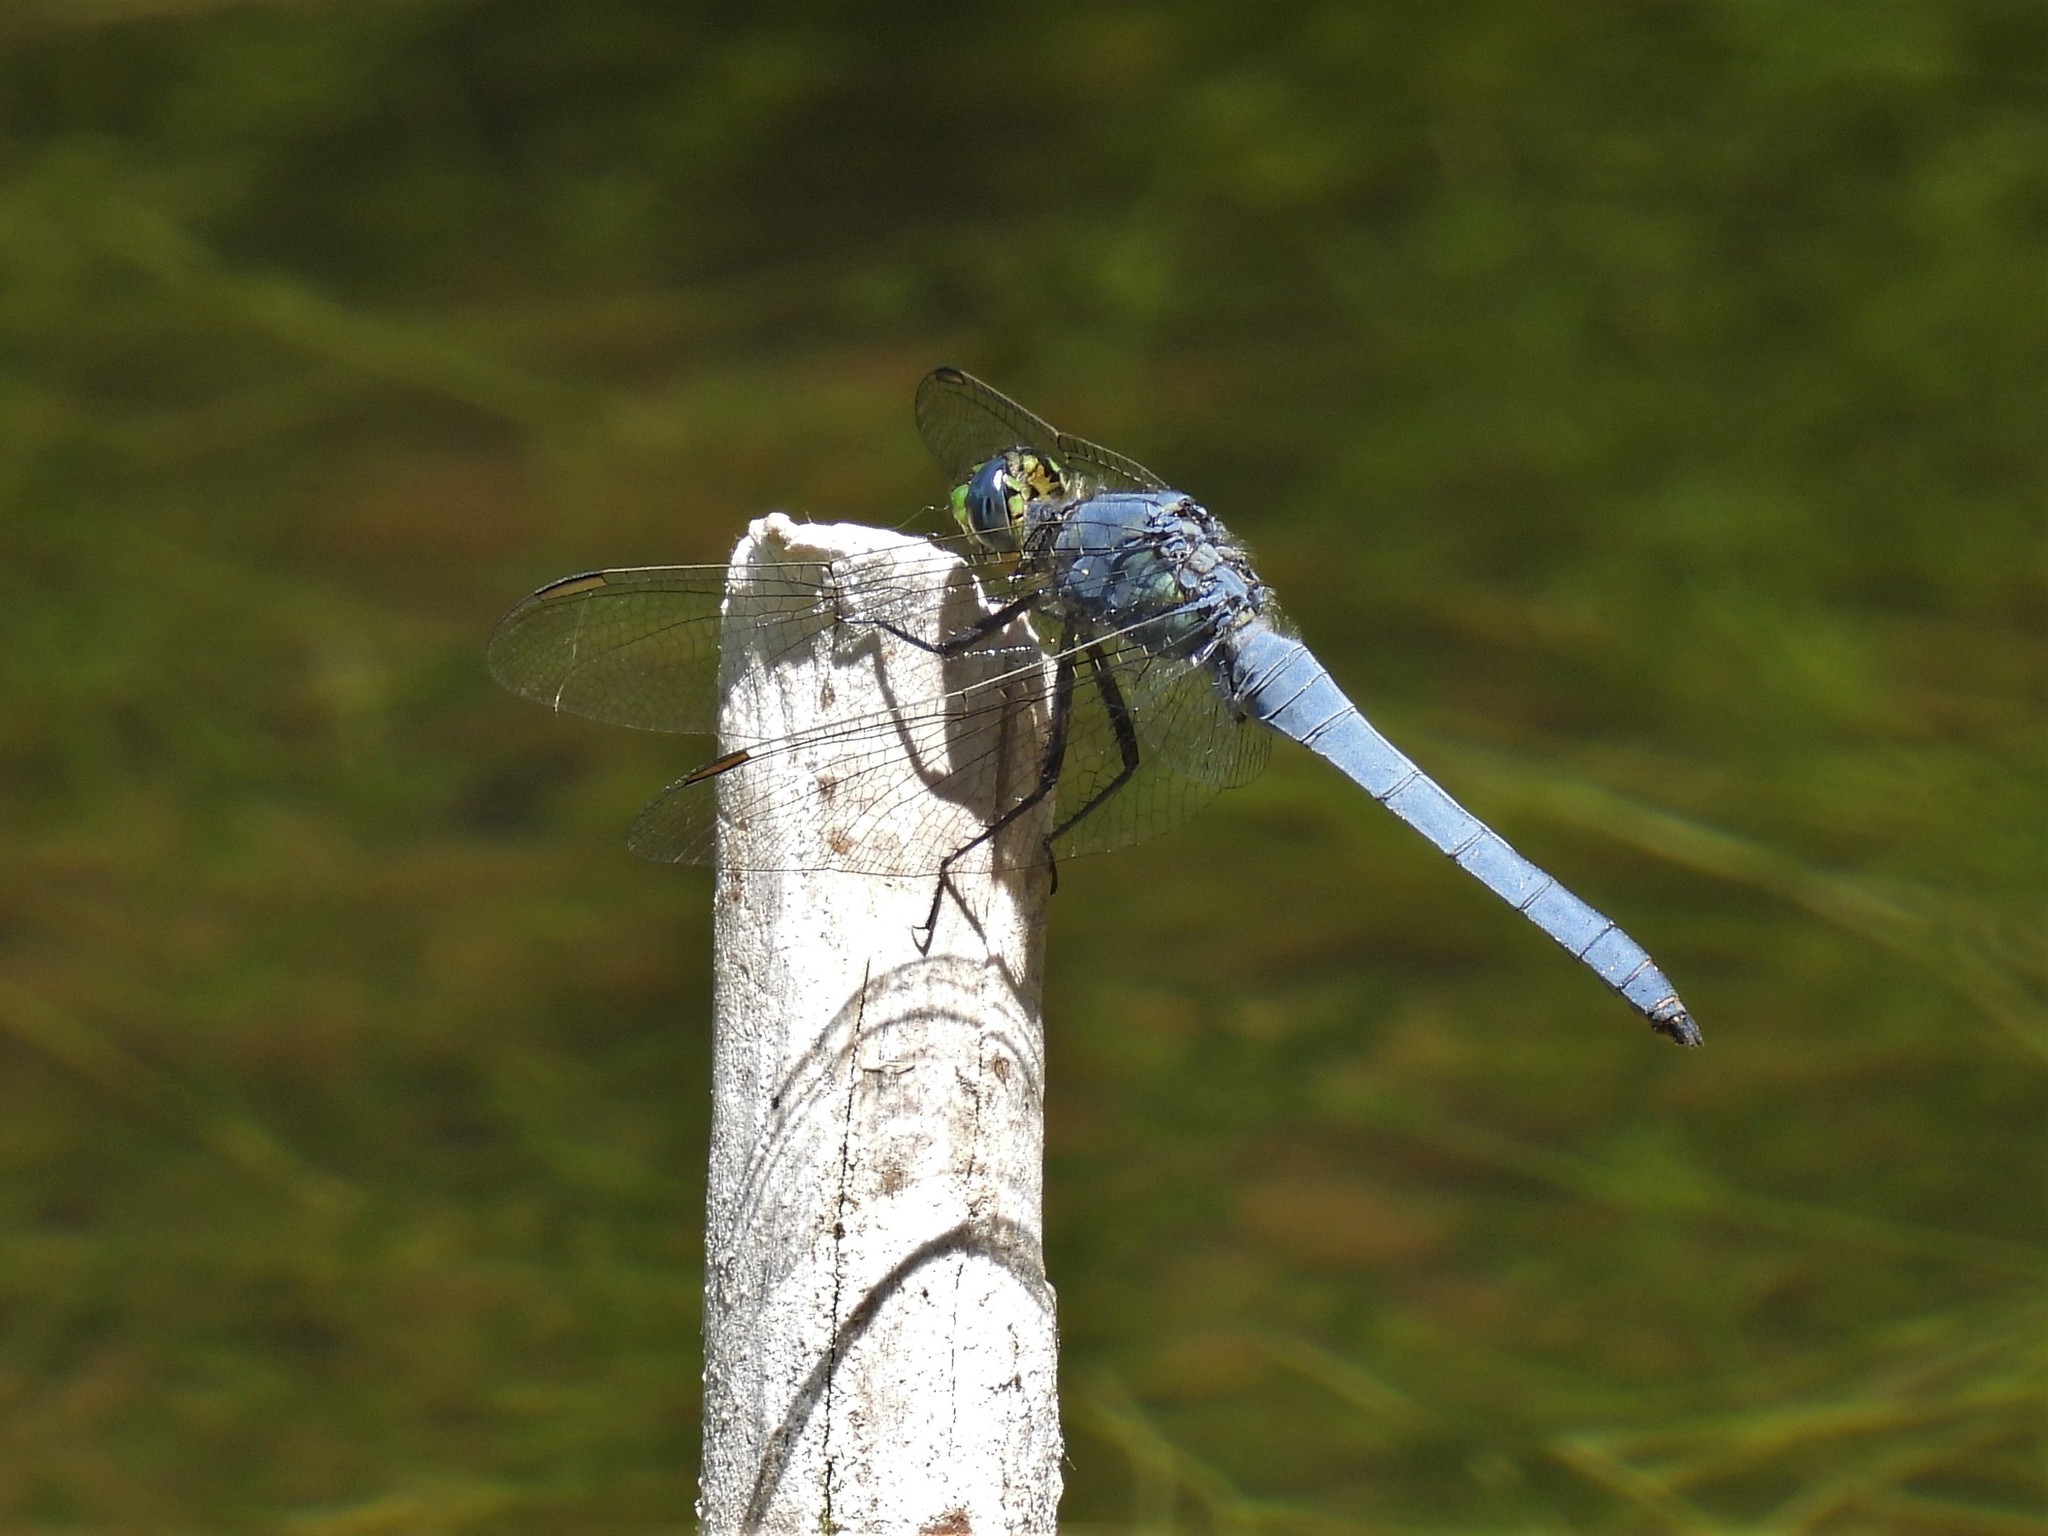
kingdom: Animalia
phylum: Arthropoda
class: Insecta
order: Odonata
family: Libellulidae
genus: Erythemis
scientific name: Erythemis collocata
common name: Western pondhawk
